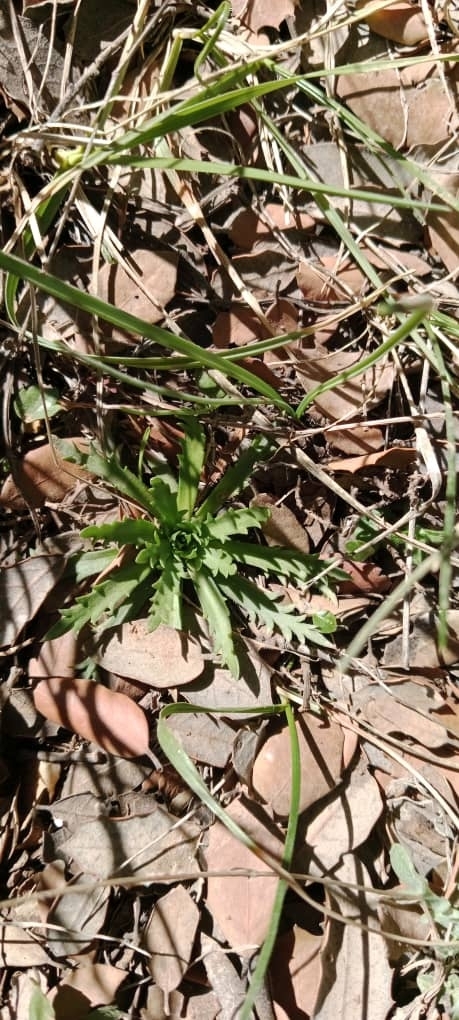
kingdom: Plantae
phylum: Tracheophyta
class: Magnoliopsida
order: Lamiales
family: Plantaginaceae
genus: Plantago
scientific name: Plantago coronopus
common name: Buck's-horn plantain
